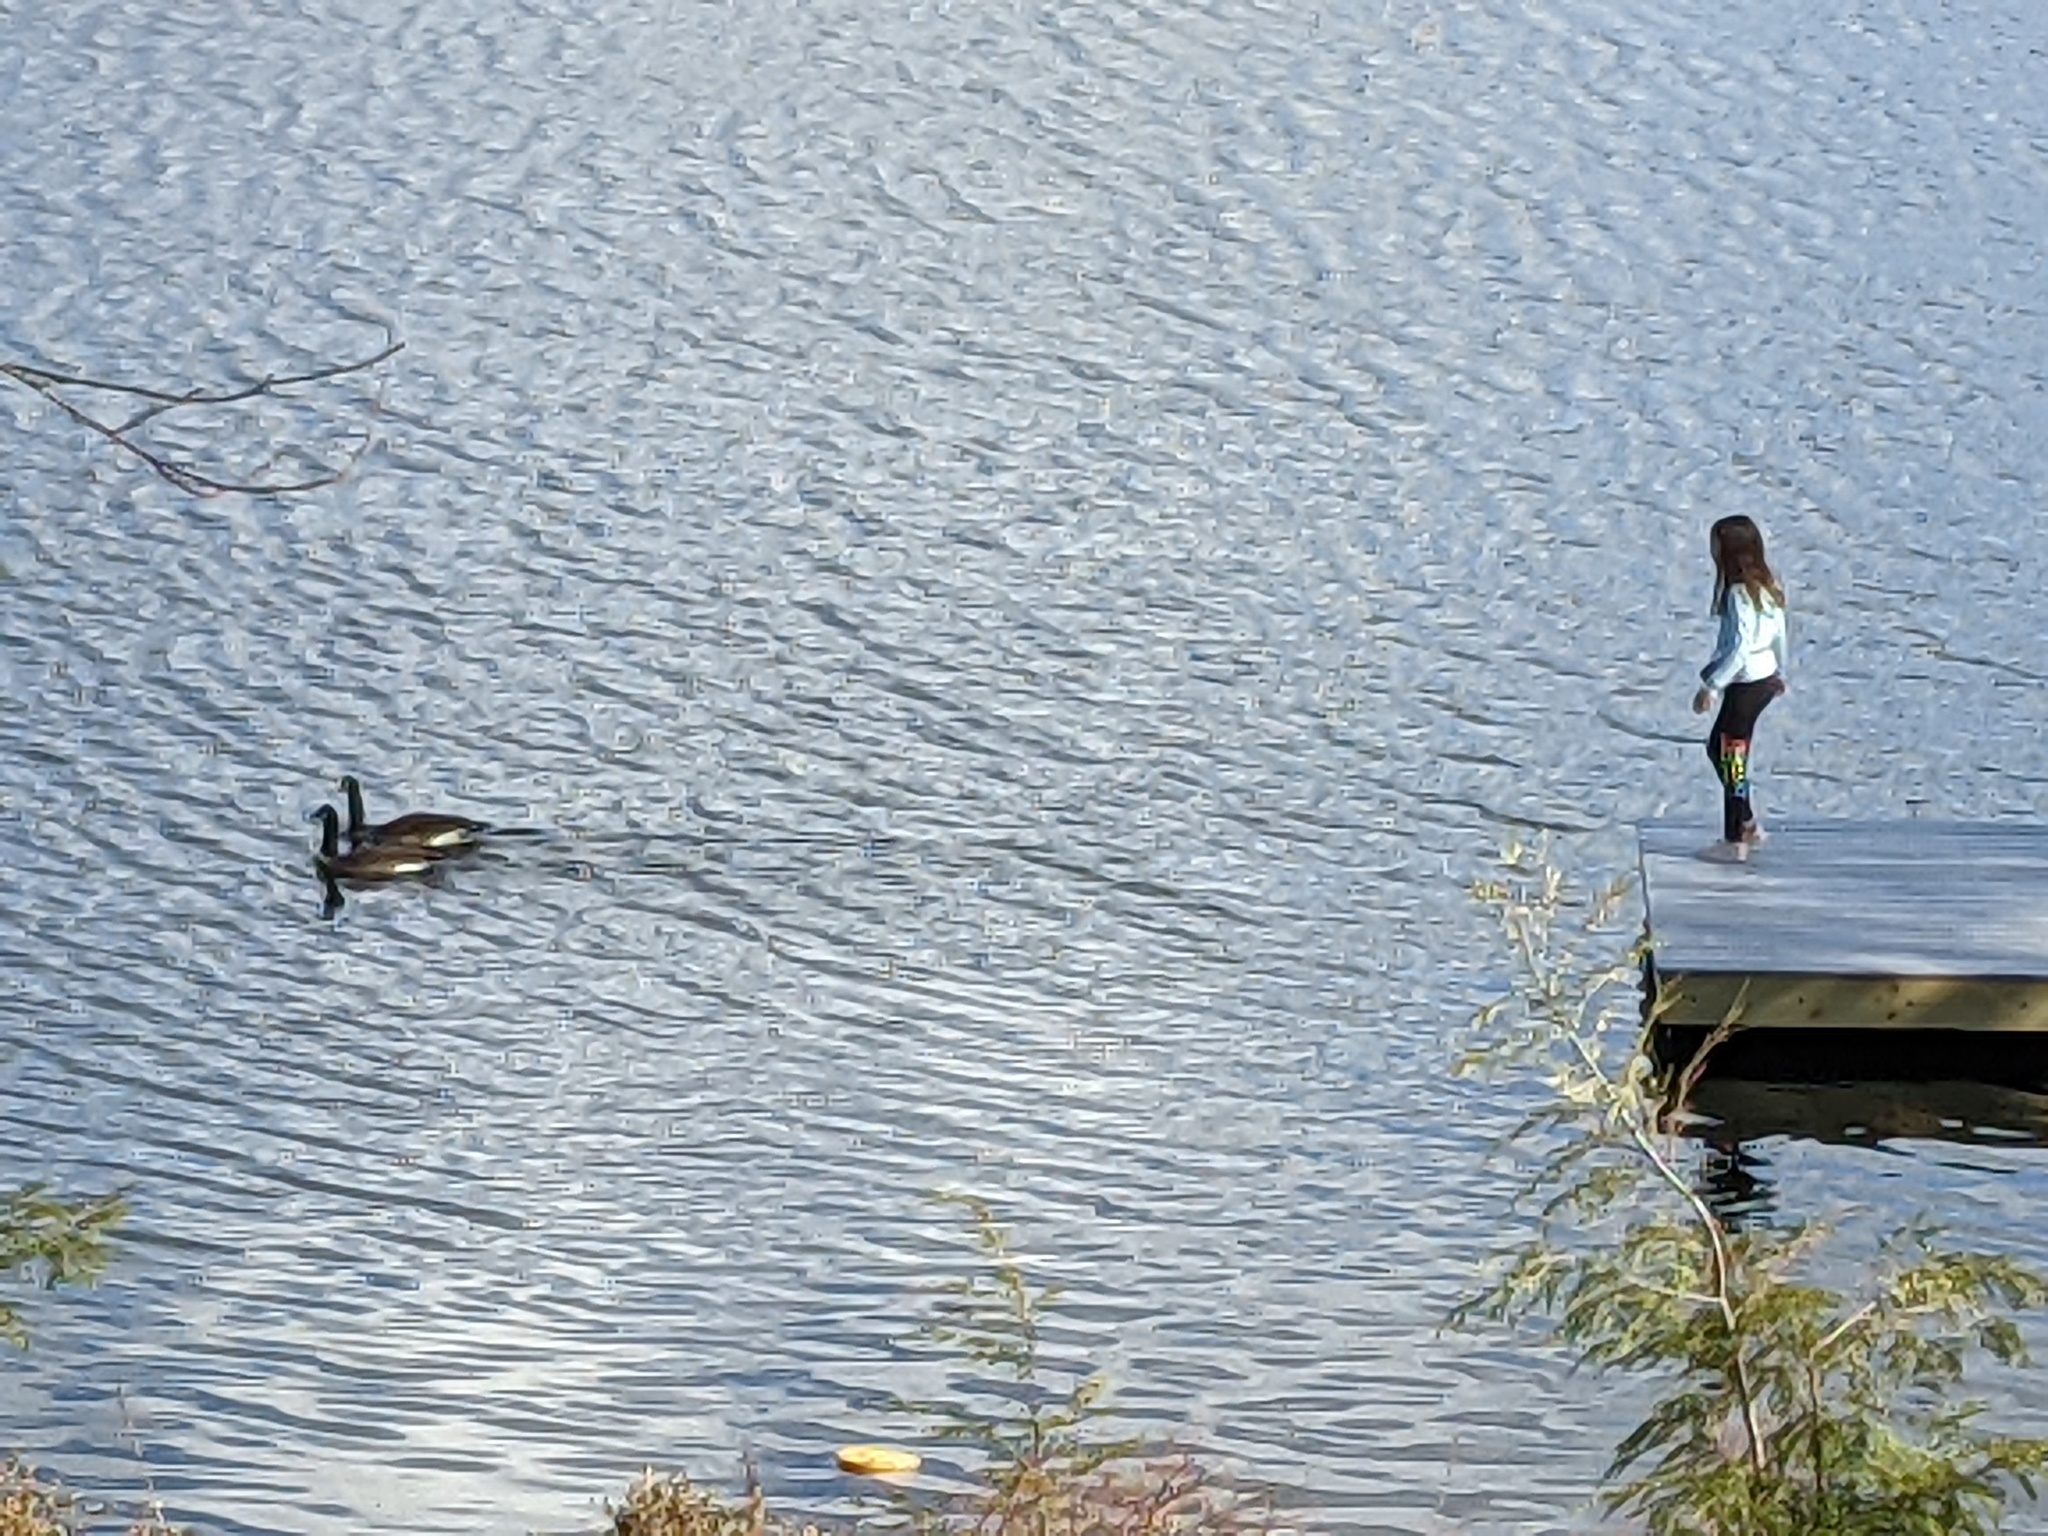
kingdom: Animalia
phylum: Chordata
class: Aves
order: Anseriformes
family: Anatidae
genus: Branta
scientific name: Branta canadensis
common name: Canada goose
